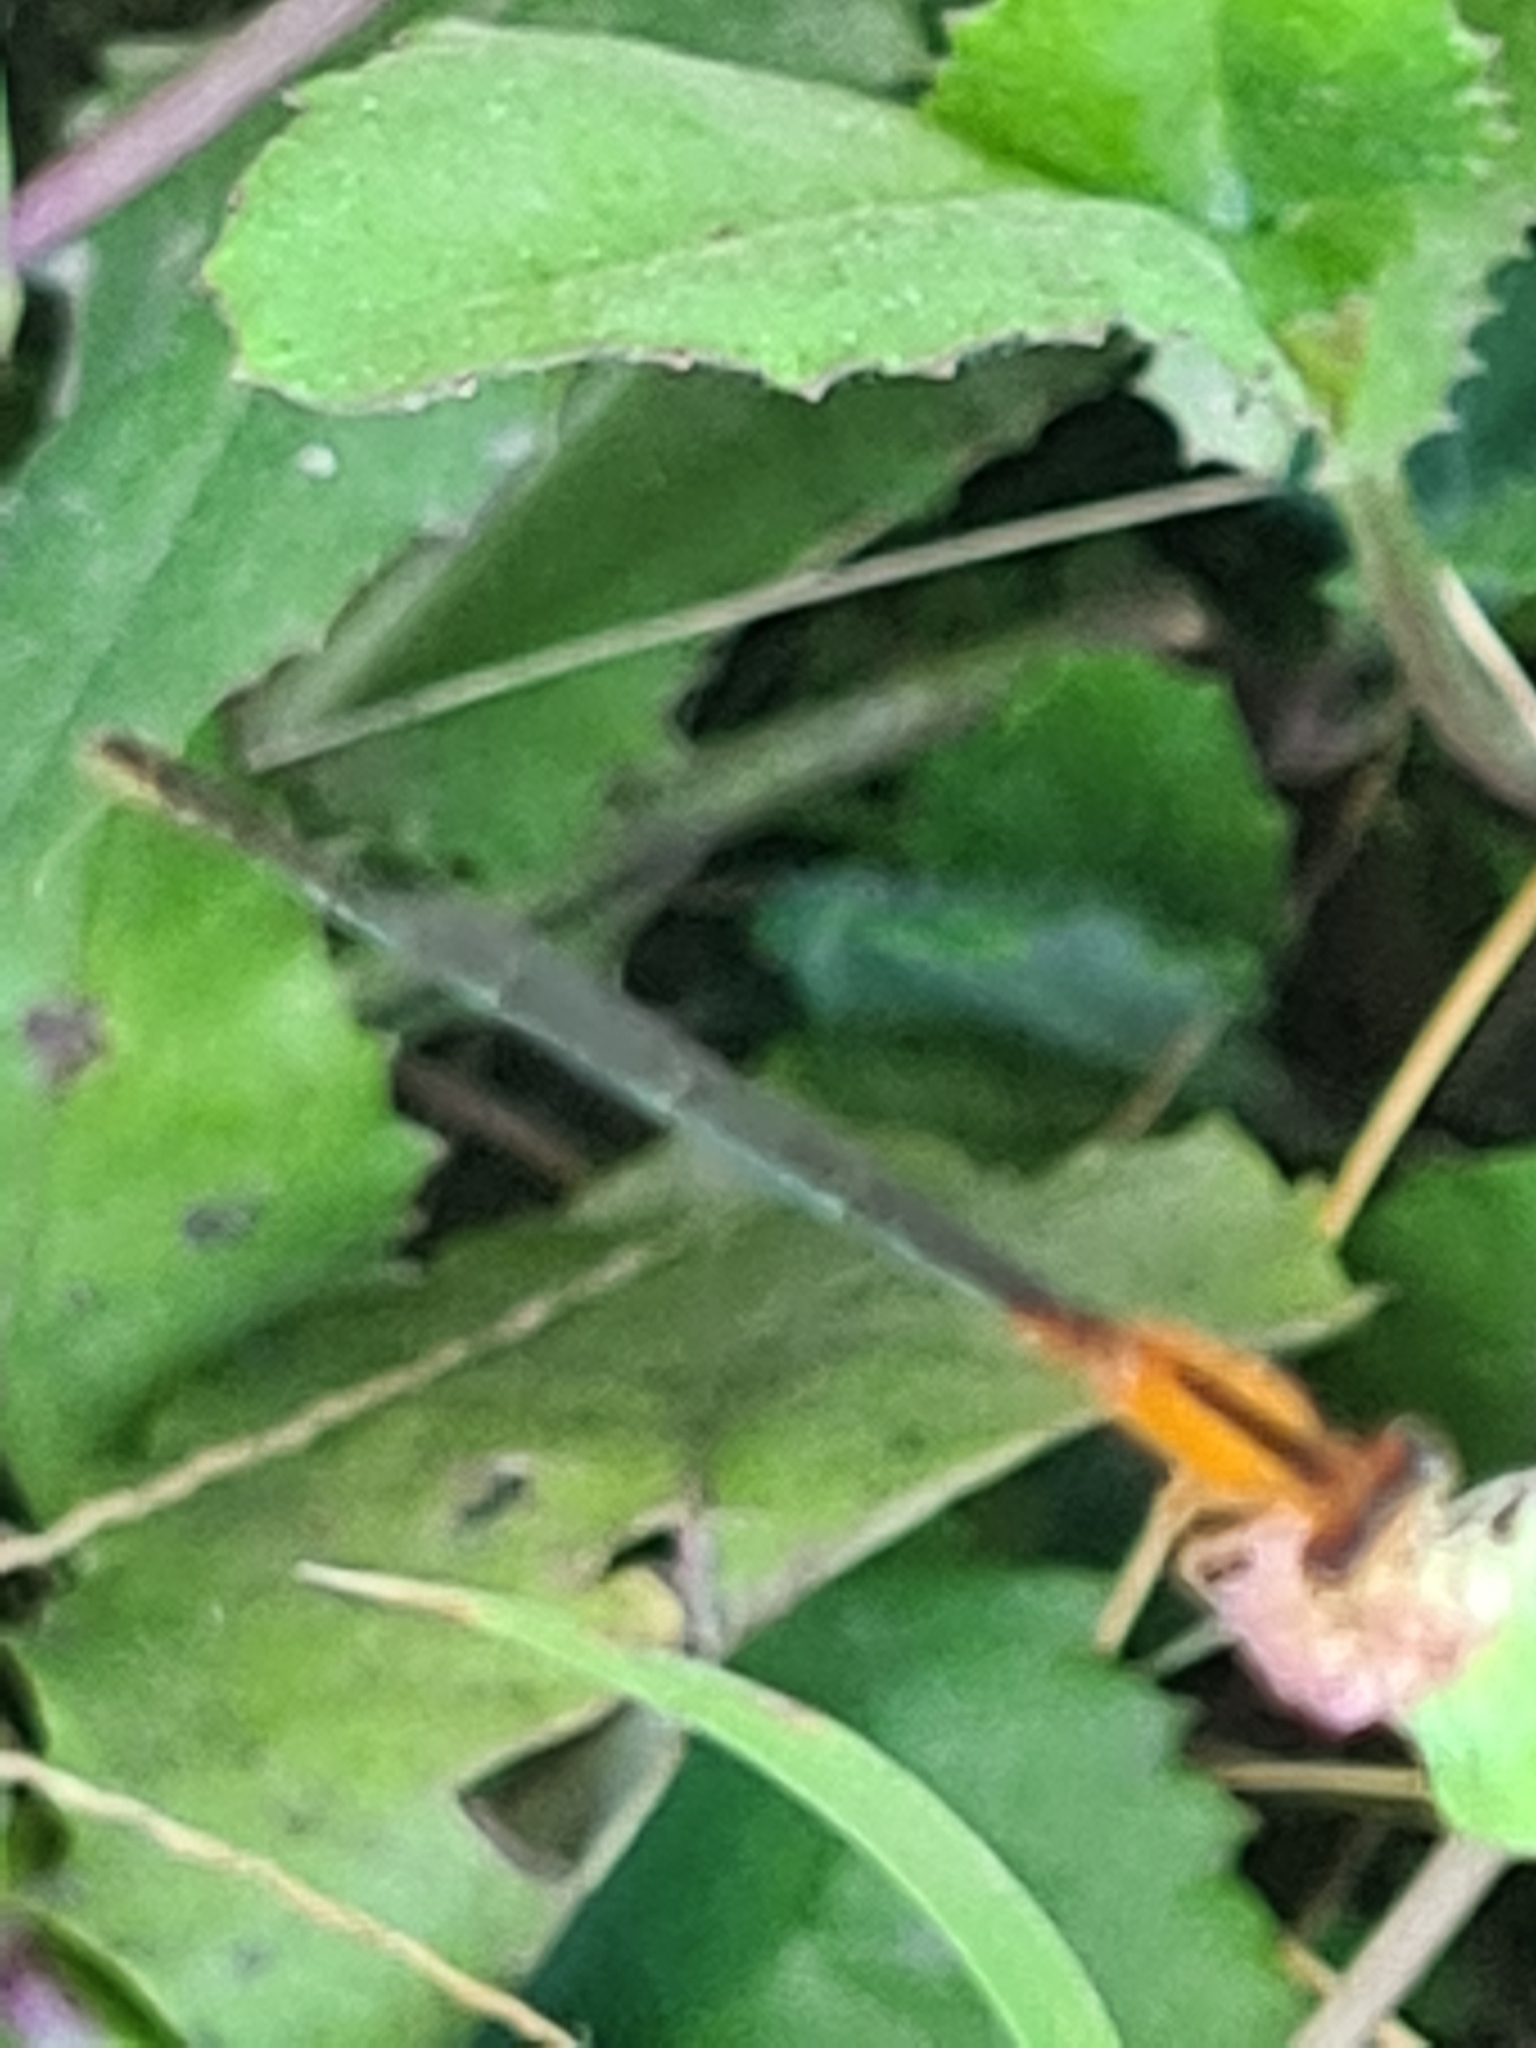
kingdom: Animalia
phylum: Arthropoda
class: Insecta
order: Odonata
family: Coenagrionidae
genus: Ischnura
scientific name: Ischnura fluviatilis
